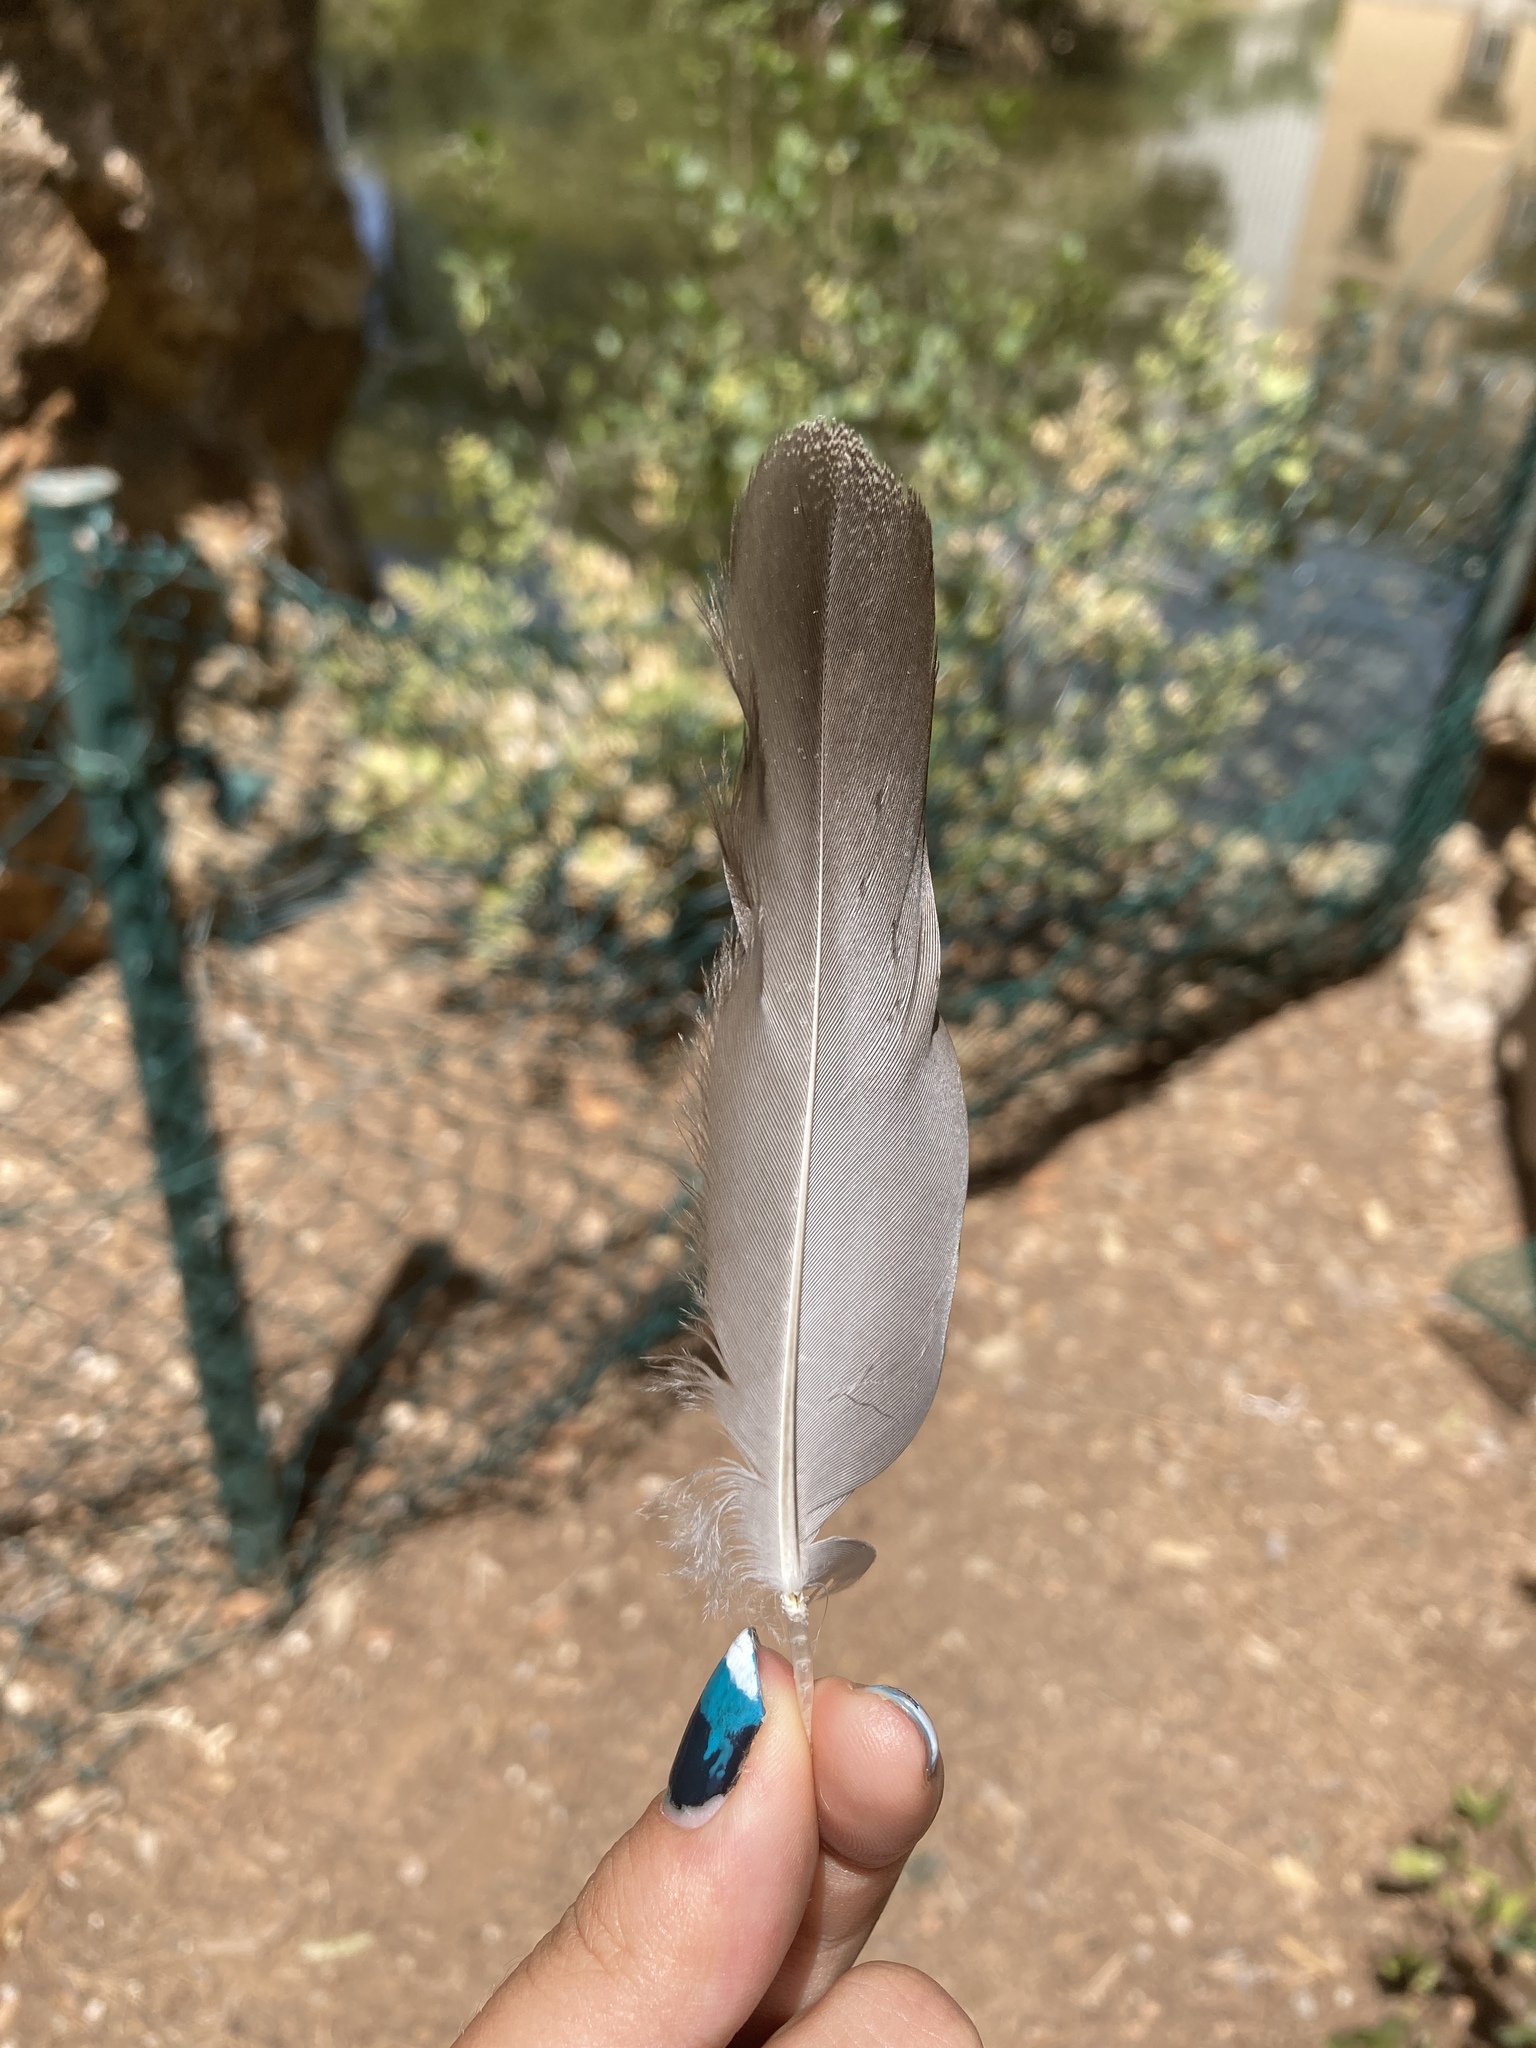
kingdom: Animalia
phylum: Chordata
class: Aves
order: Anseriformes
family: Anatidae
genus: Tadorna
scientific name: Tadorna ferruginea
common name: Ruddy shelduck
